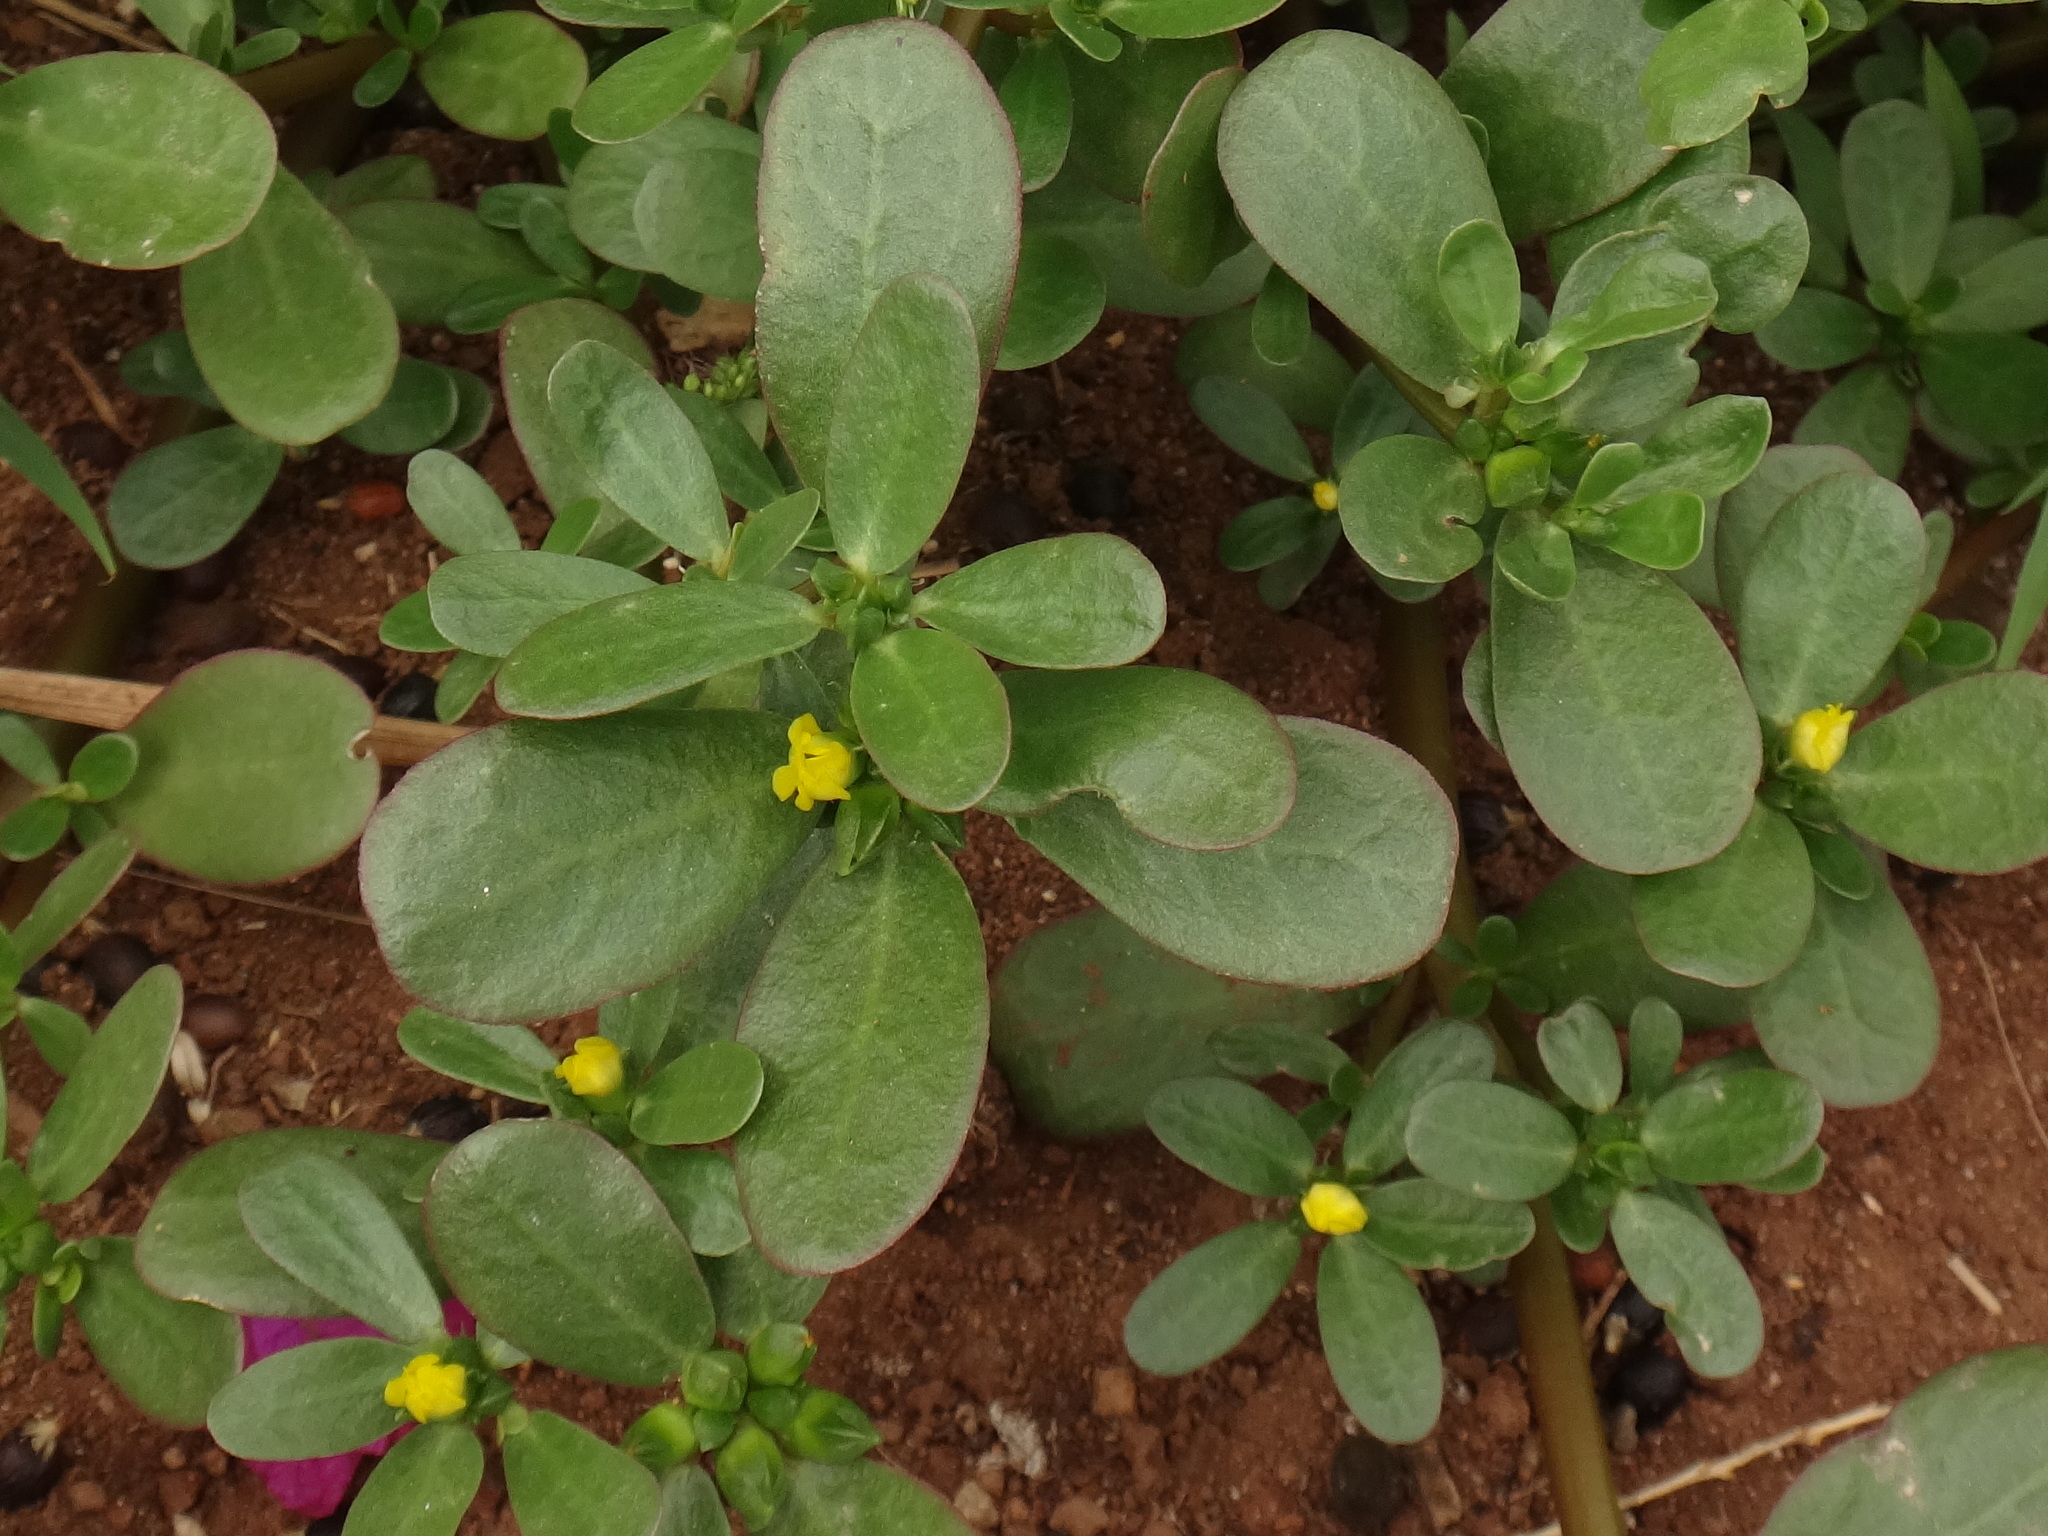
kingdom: Plantae
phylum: Tracheophyta
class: Magnoliopsida
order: Caryophyllales
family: Portulacaceae
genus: Portulaca
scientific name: Portulaca oleracea
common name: Common purslane
